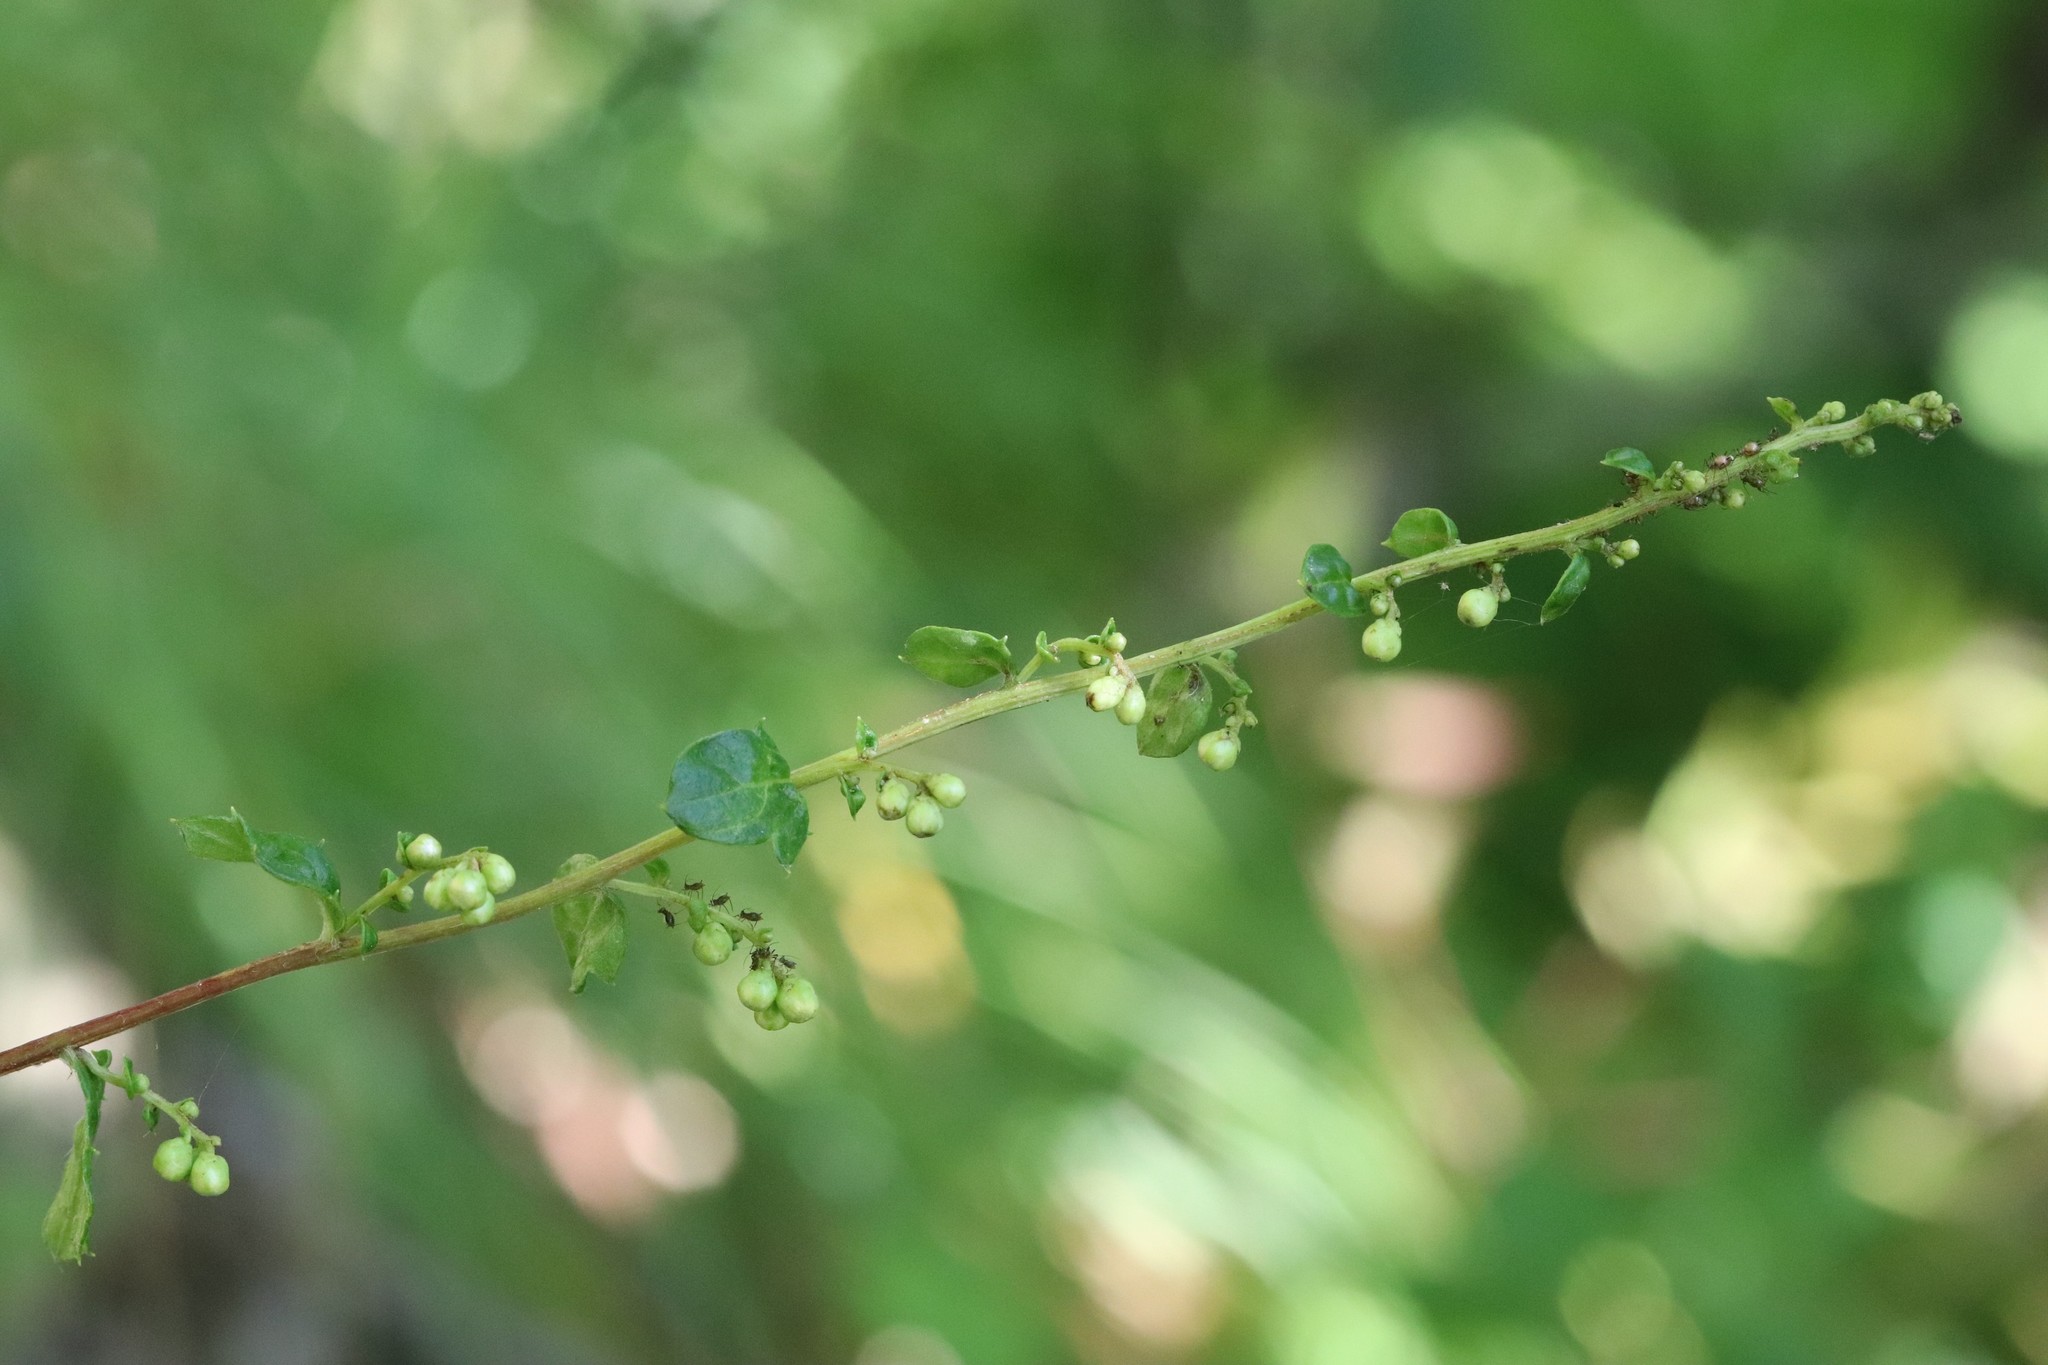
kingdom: Plantae
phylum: Tracheophyta
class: Magnoliopsida
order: Asterales
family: Asteraceae
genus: Artemisia
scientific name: Artemisia keiskeana
